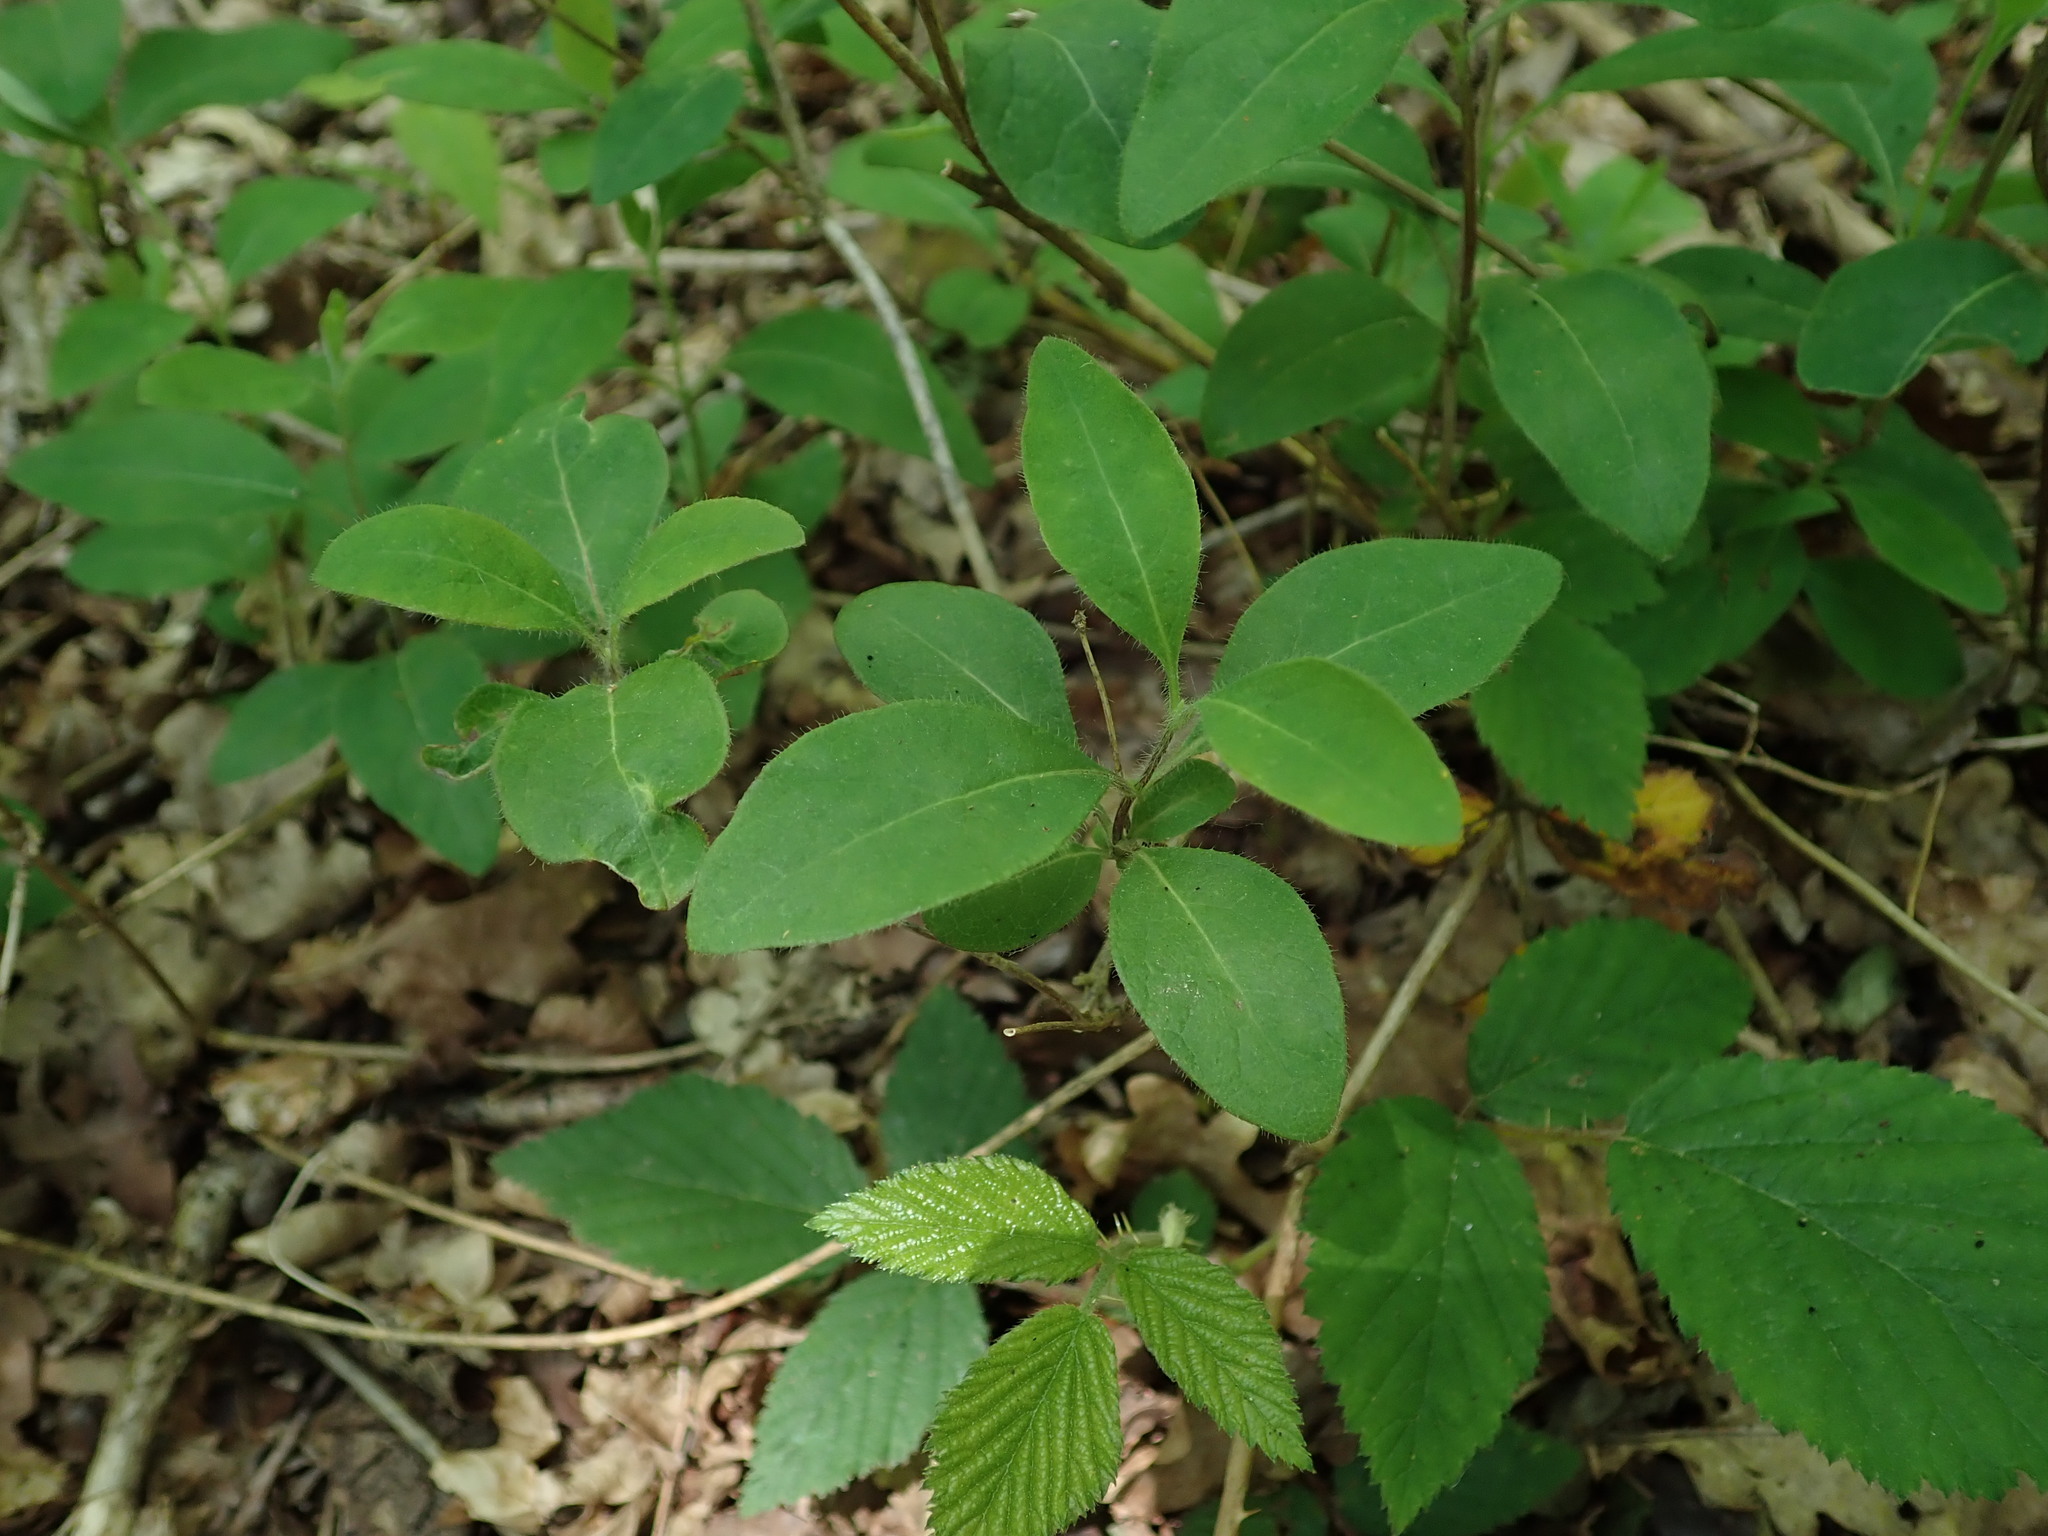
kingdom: Plantae
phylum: Tracheophyta
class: Magnoliopsida
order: Dipsacales
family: Caprifoliaceae
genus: Lonicera
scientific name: Lonicera periclymenum
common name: European honeysuckle
